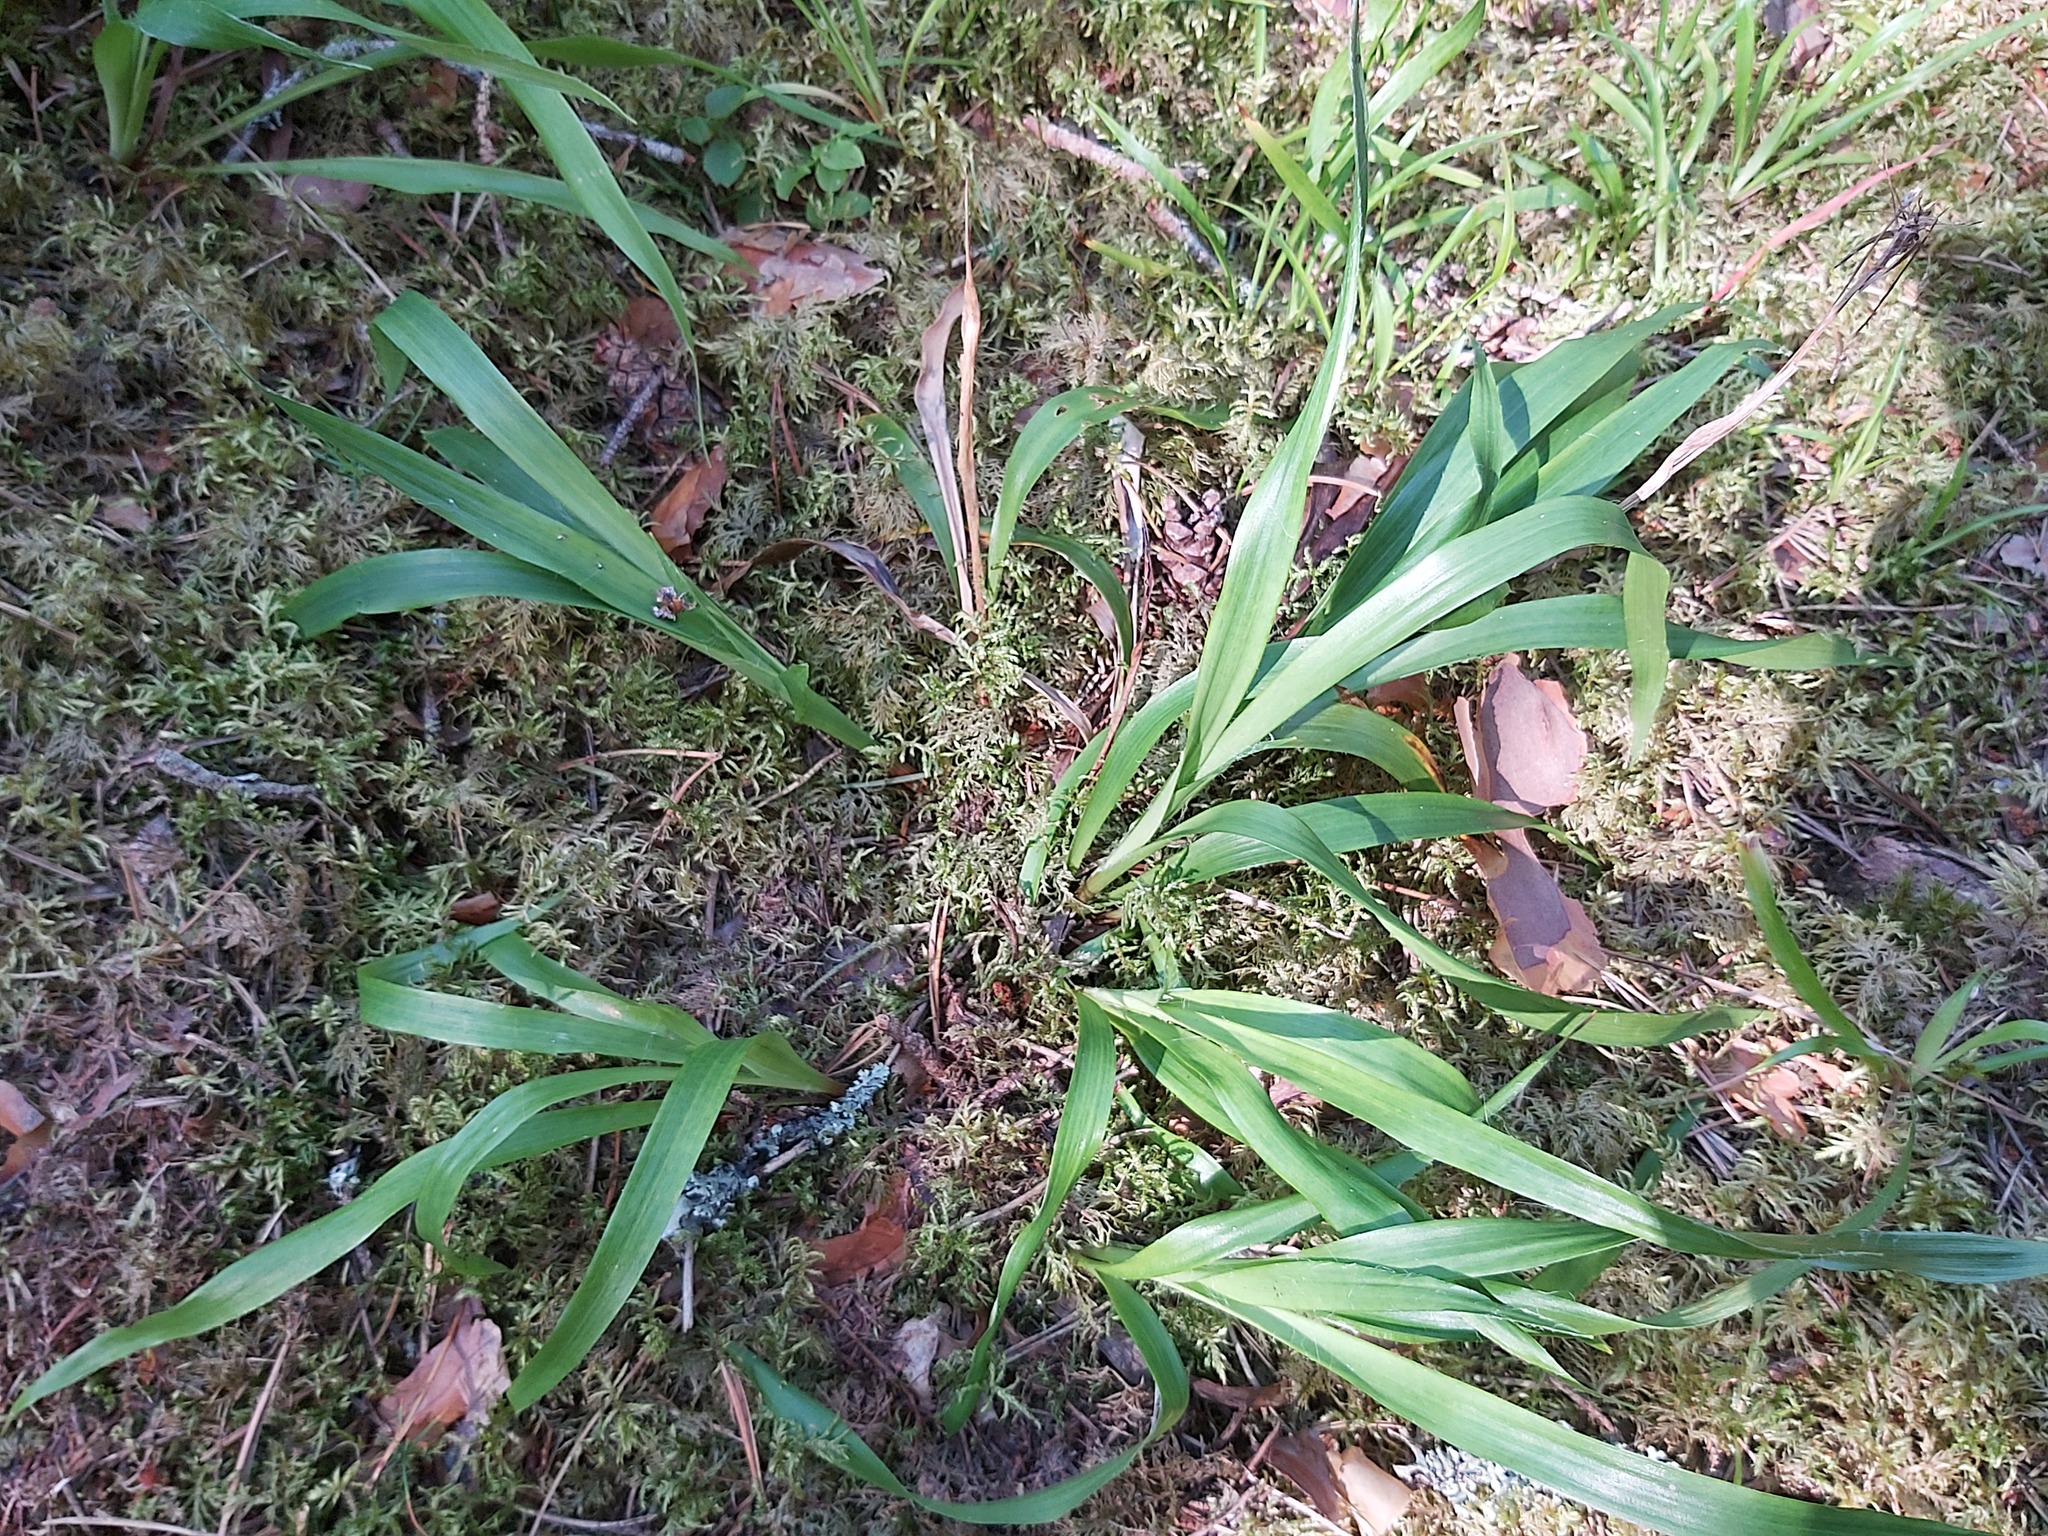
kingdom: Plantae
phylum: Tracheophyta
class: Liliopsida
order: Poales
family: Juncaceae
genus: Luzula
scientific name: Luzula pilosa
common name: Hairy wood-rush
